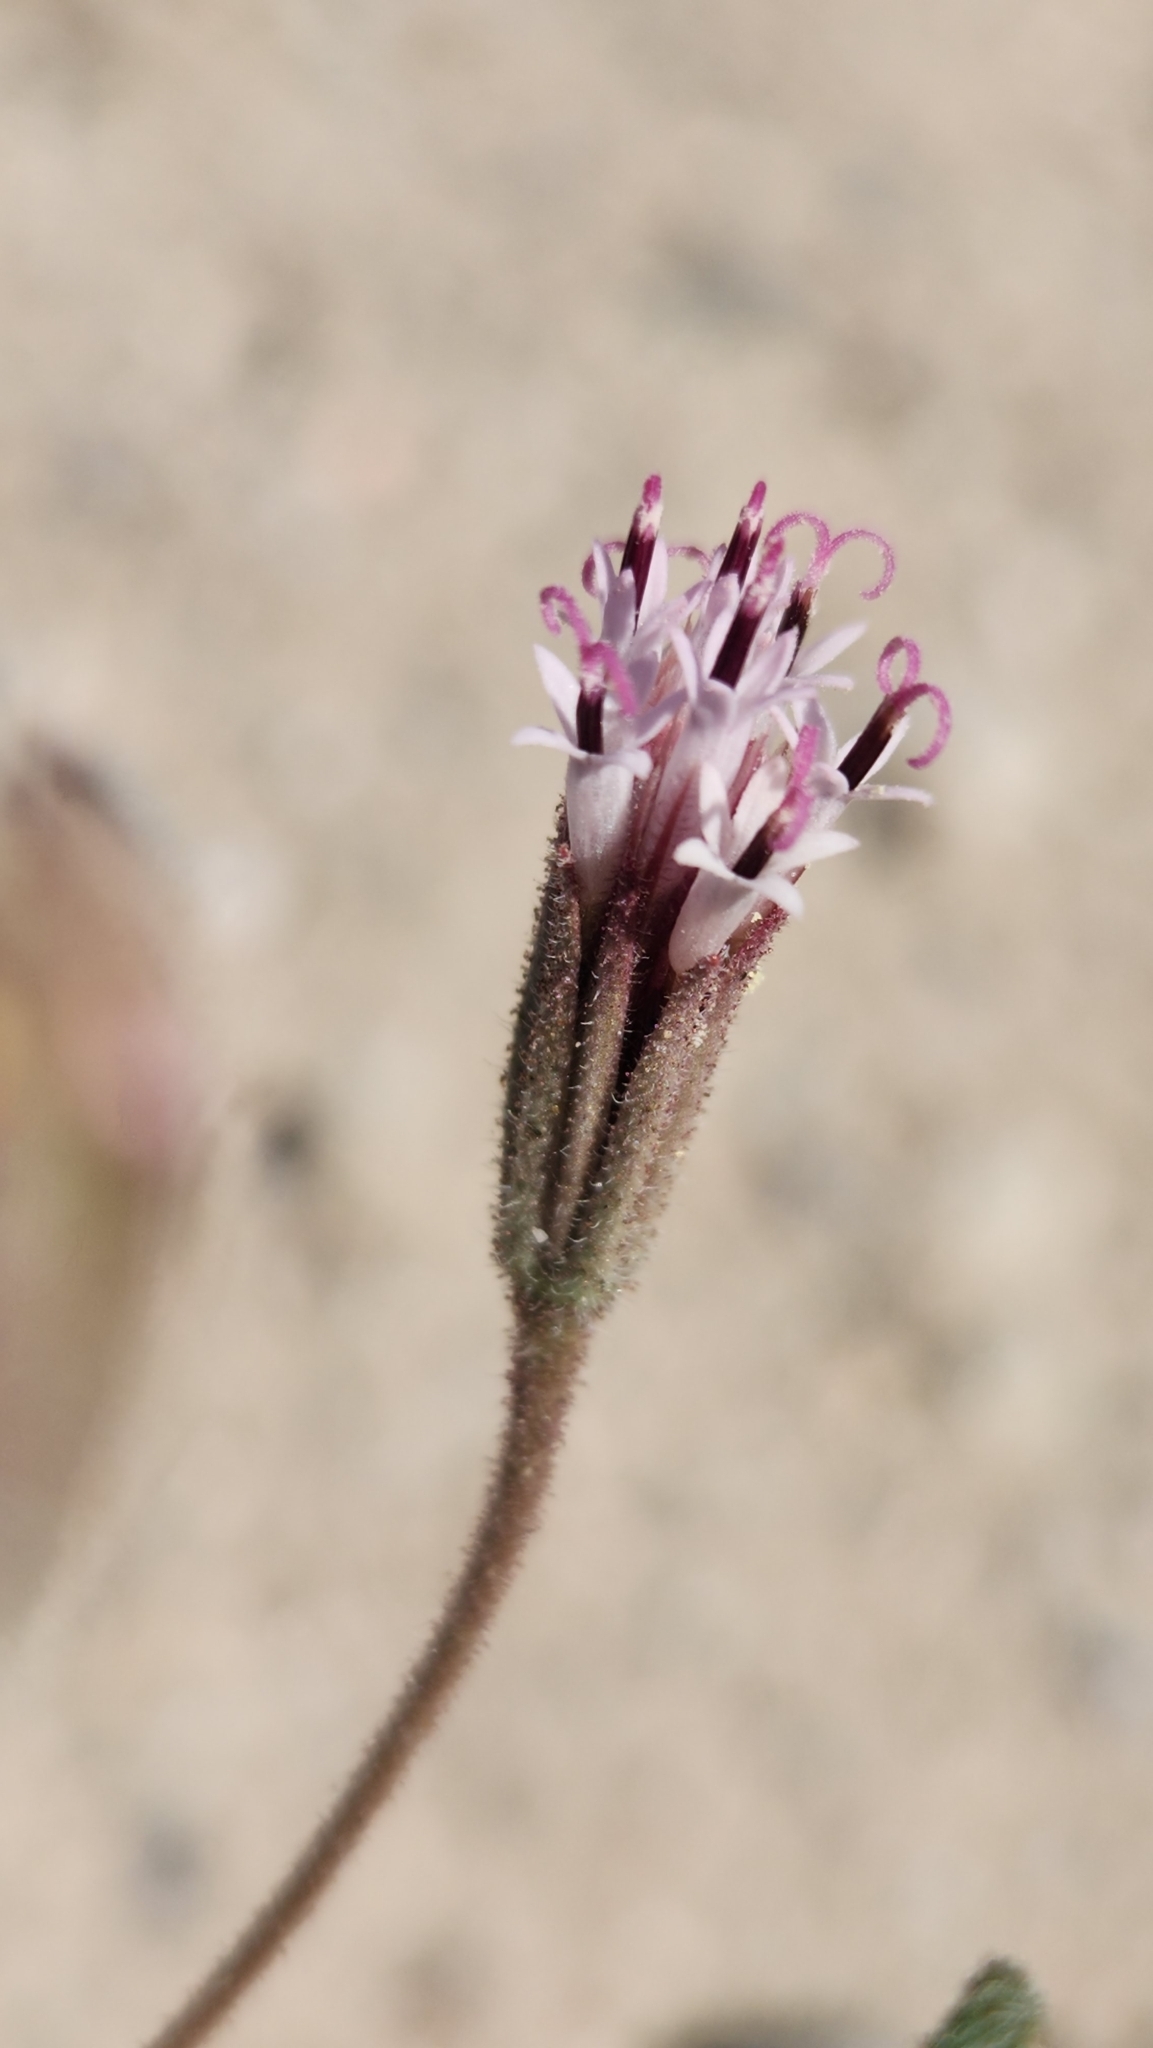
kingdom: Plantae
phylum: Tracheophyta
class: Magnoliopsida
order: Asterales
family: Asteraceae
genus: Palafoxia
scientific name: Palafoxia arida
